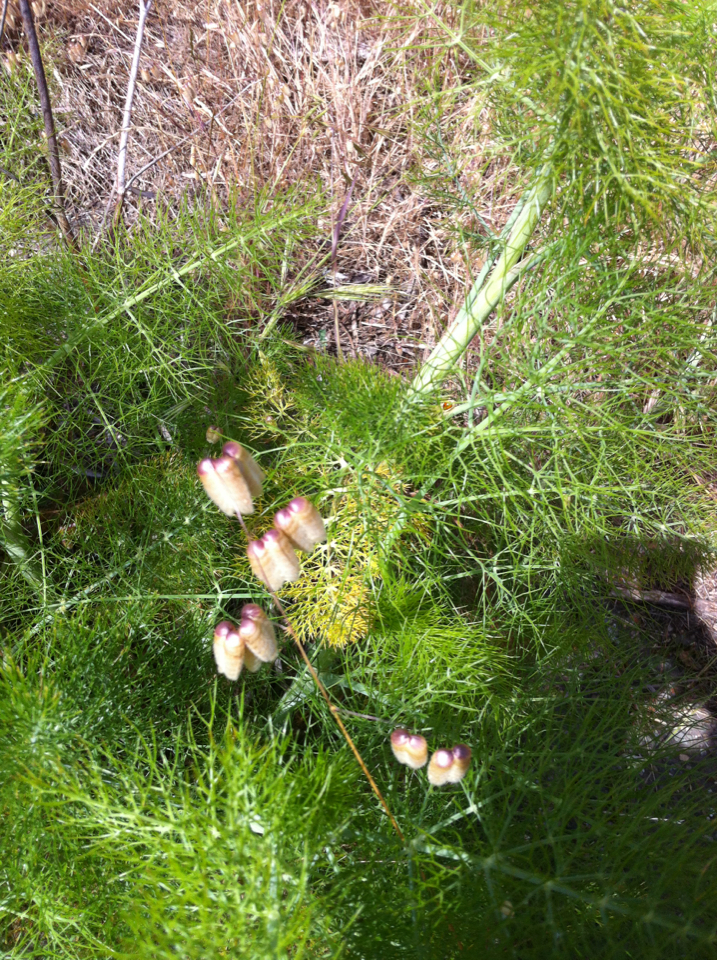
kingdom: Plantae
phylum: Tracheophyta
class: Liliopsida
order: Poales
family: Poaceae
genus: Briza
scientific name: Briza maxima
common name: Big quakinggrass
